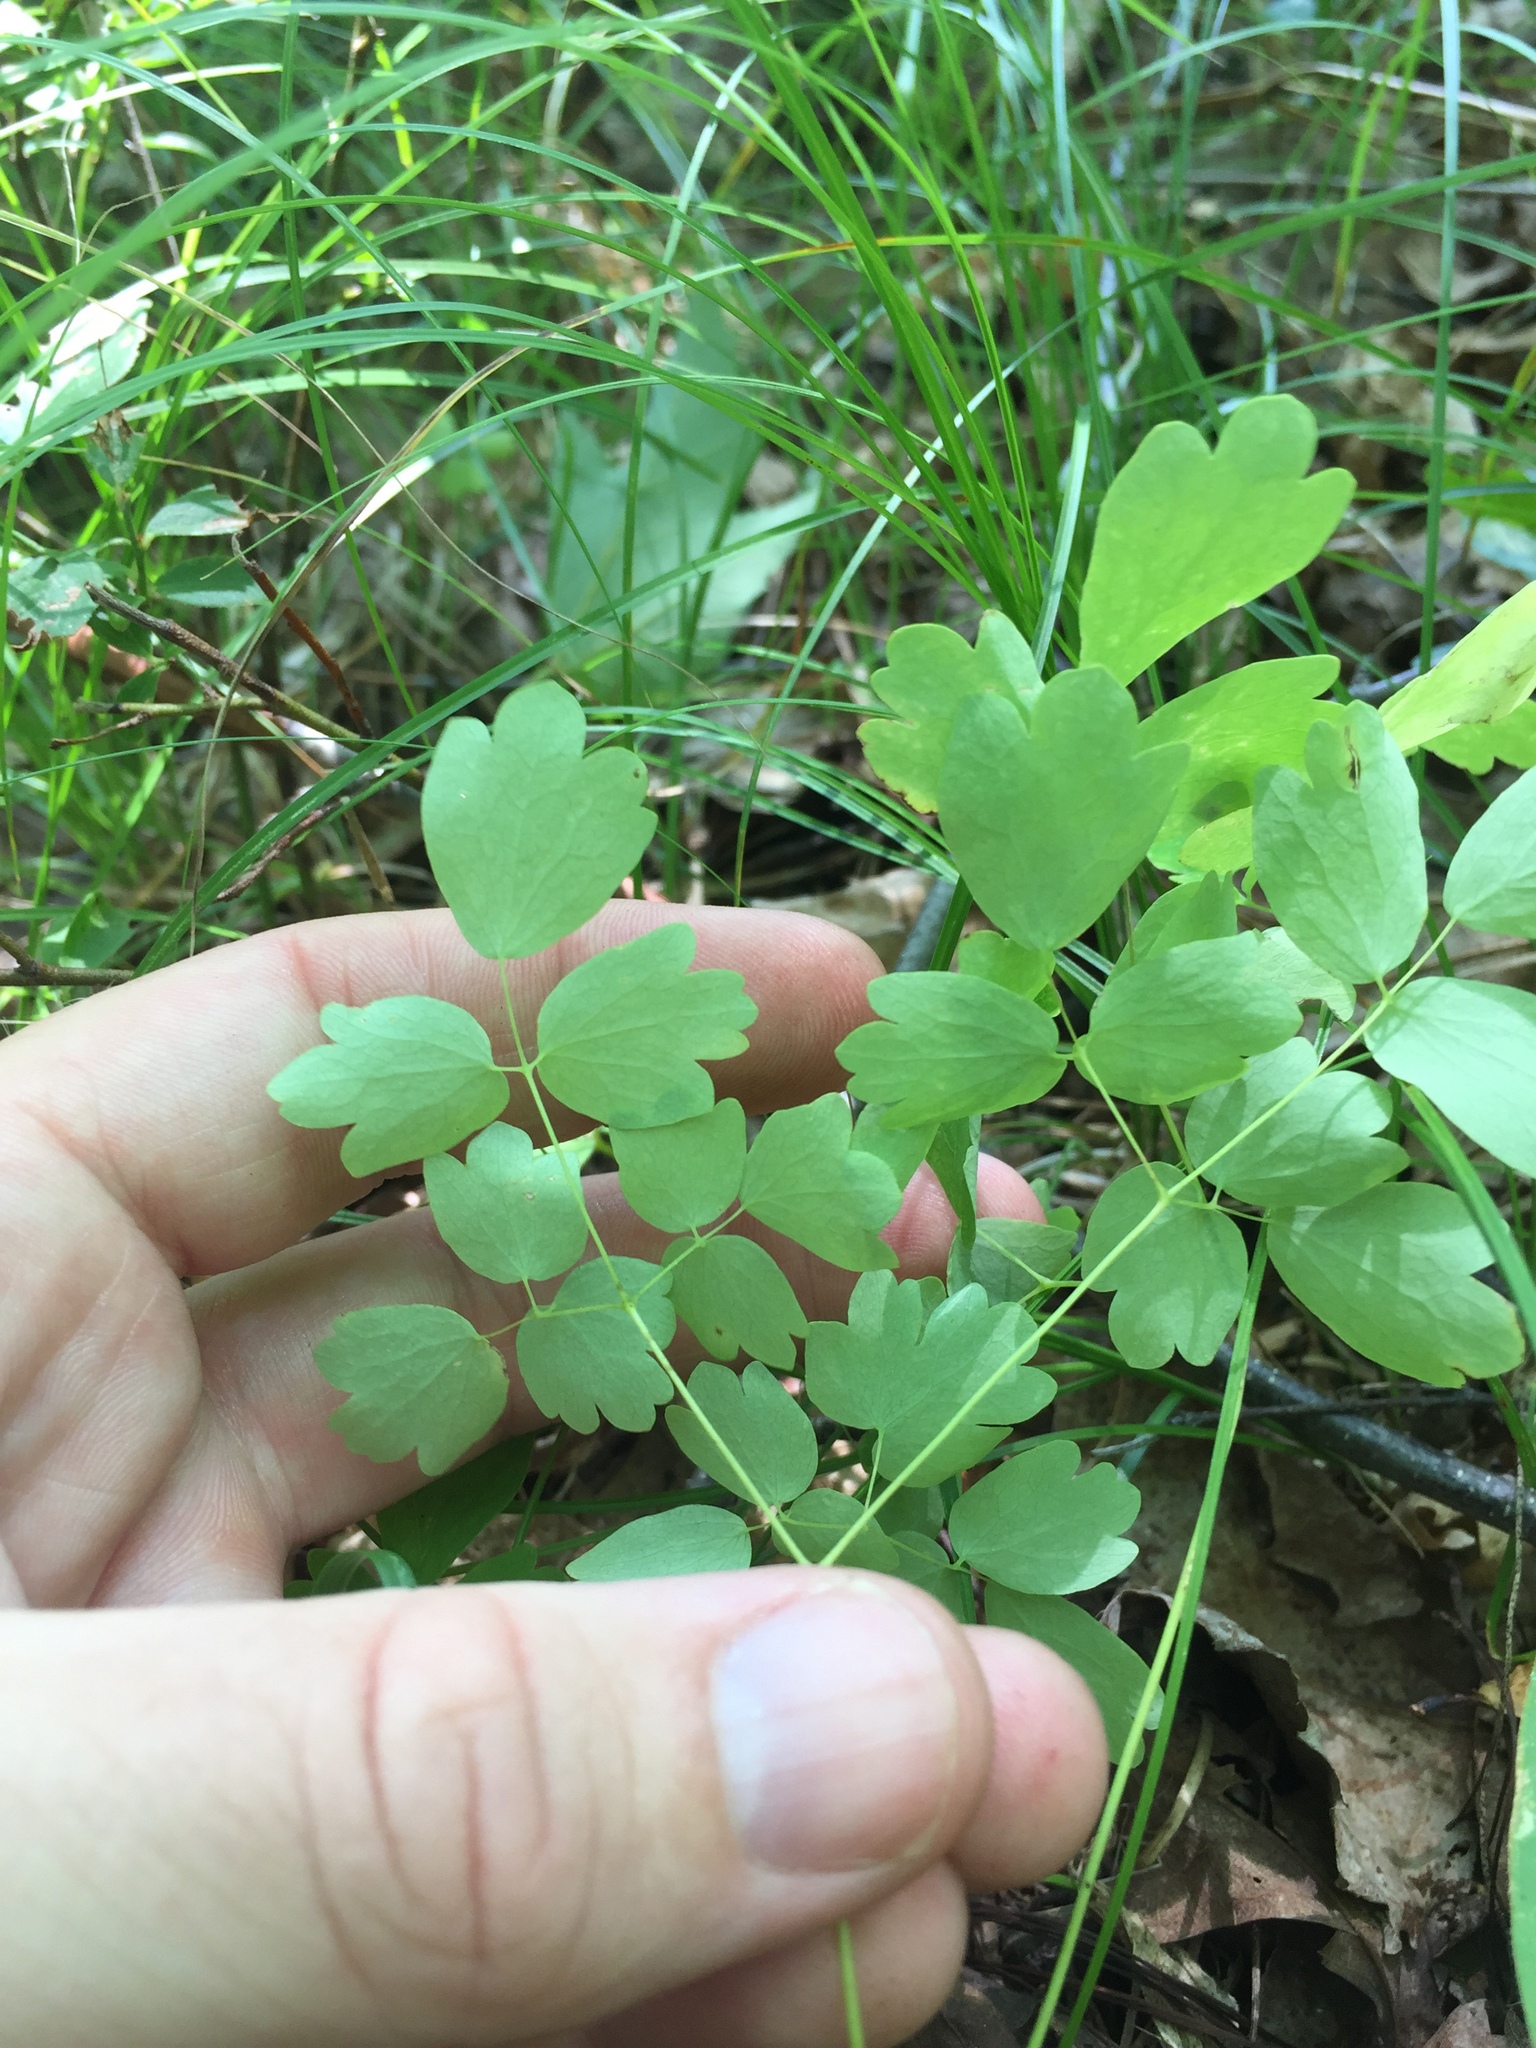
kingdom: Plantae
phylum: Tracheophyta
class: Magnoliopsida
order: Ranunculales
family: Ranunculaceae
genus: Thalictrum
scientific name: Thalictrum dioicum
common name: Early meadow-rue
